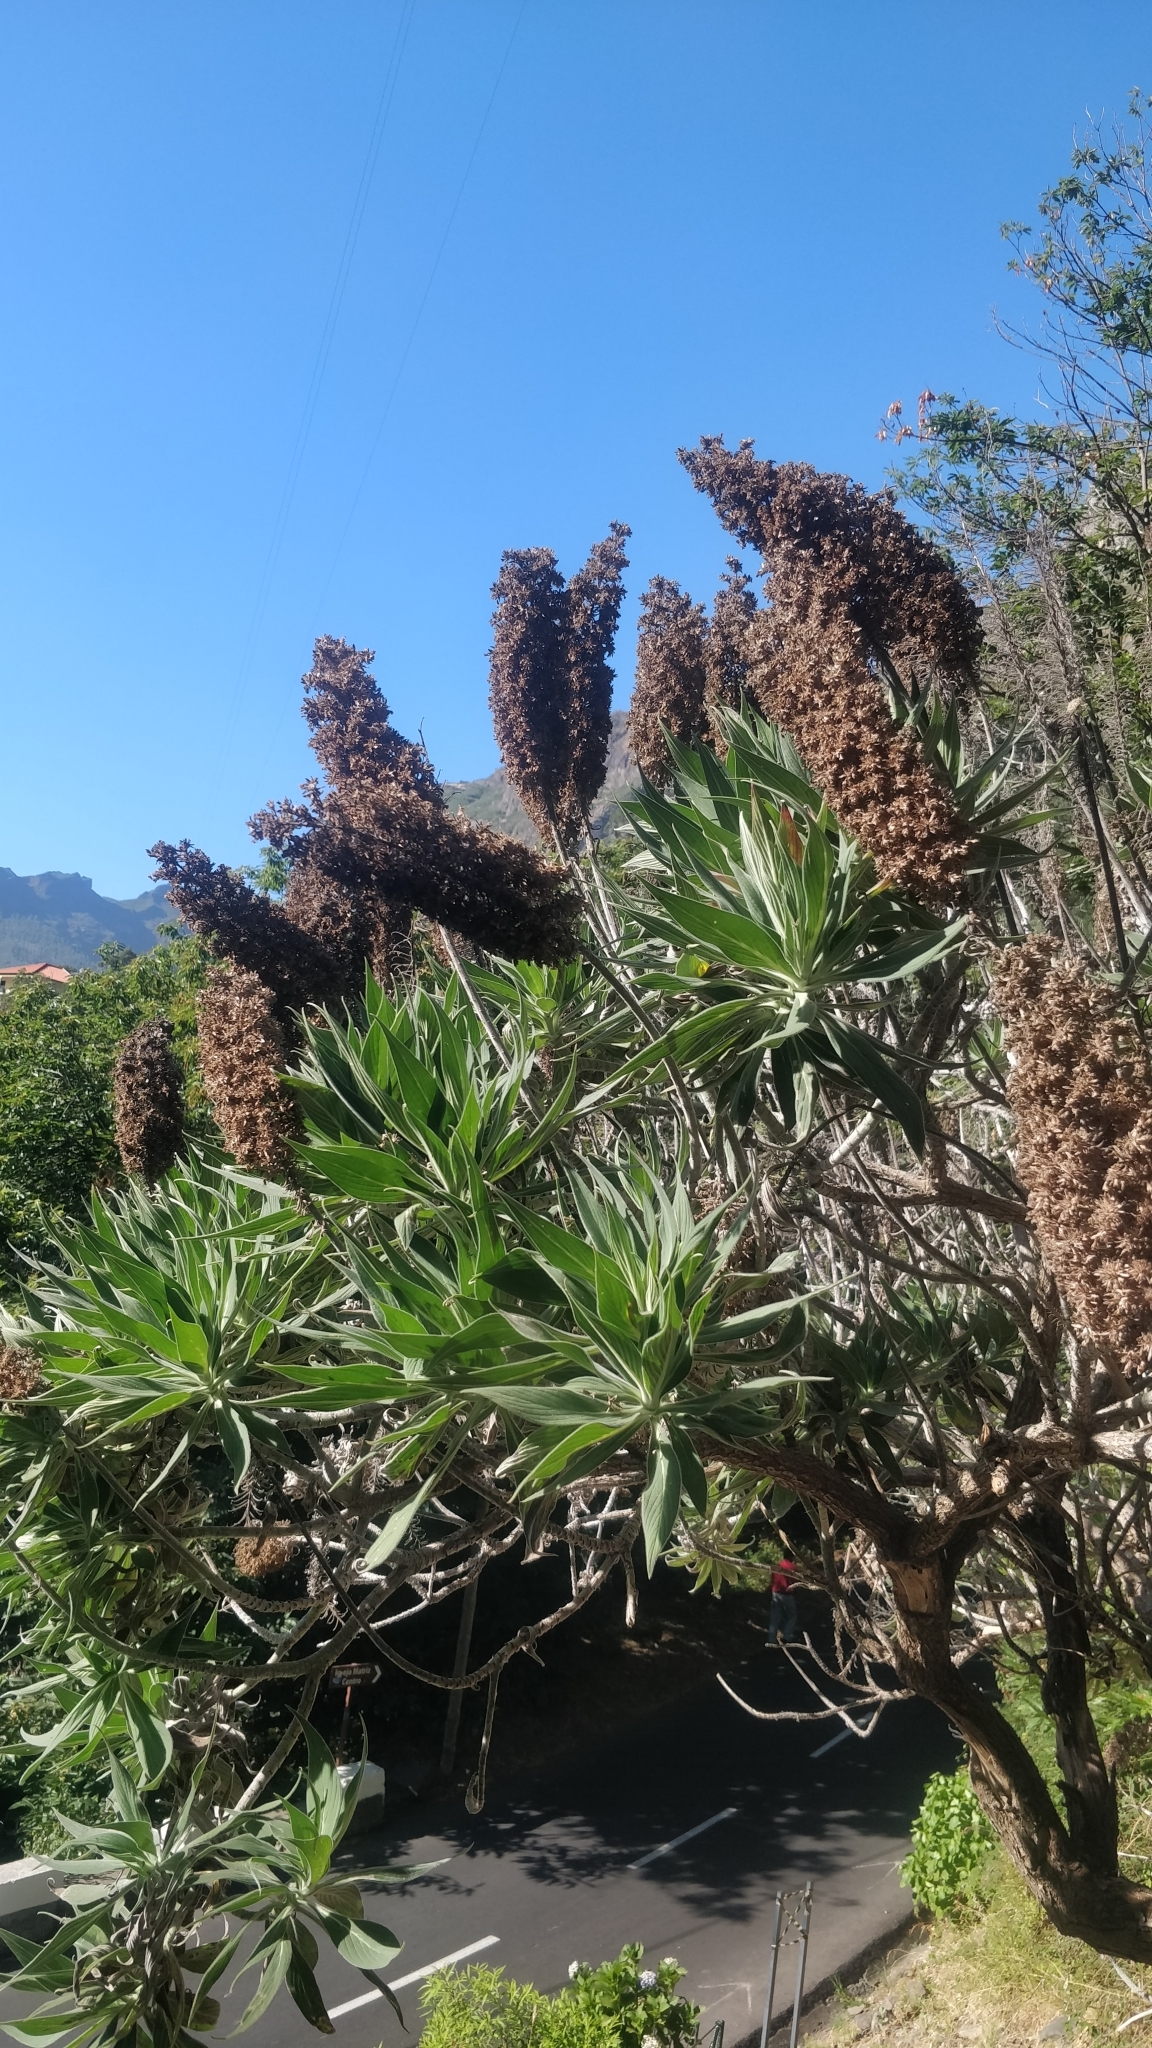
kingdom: Plantae
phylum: Tracheophyta
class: Magnoliopsida
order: Boraginales
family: Boraginaceae
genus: Echium
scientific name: Echium candicans
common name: Pride of madeira
